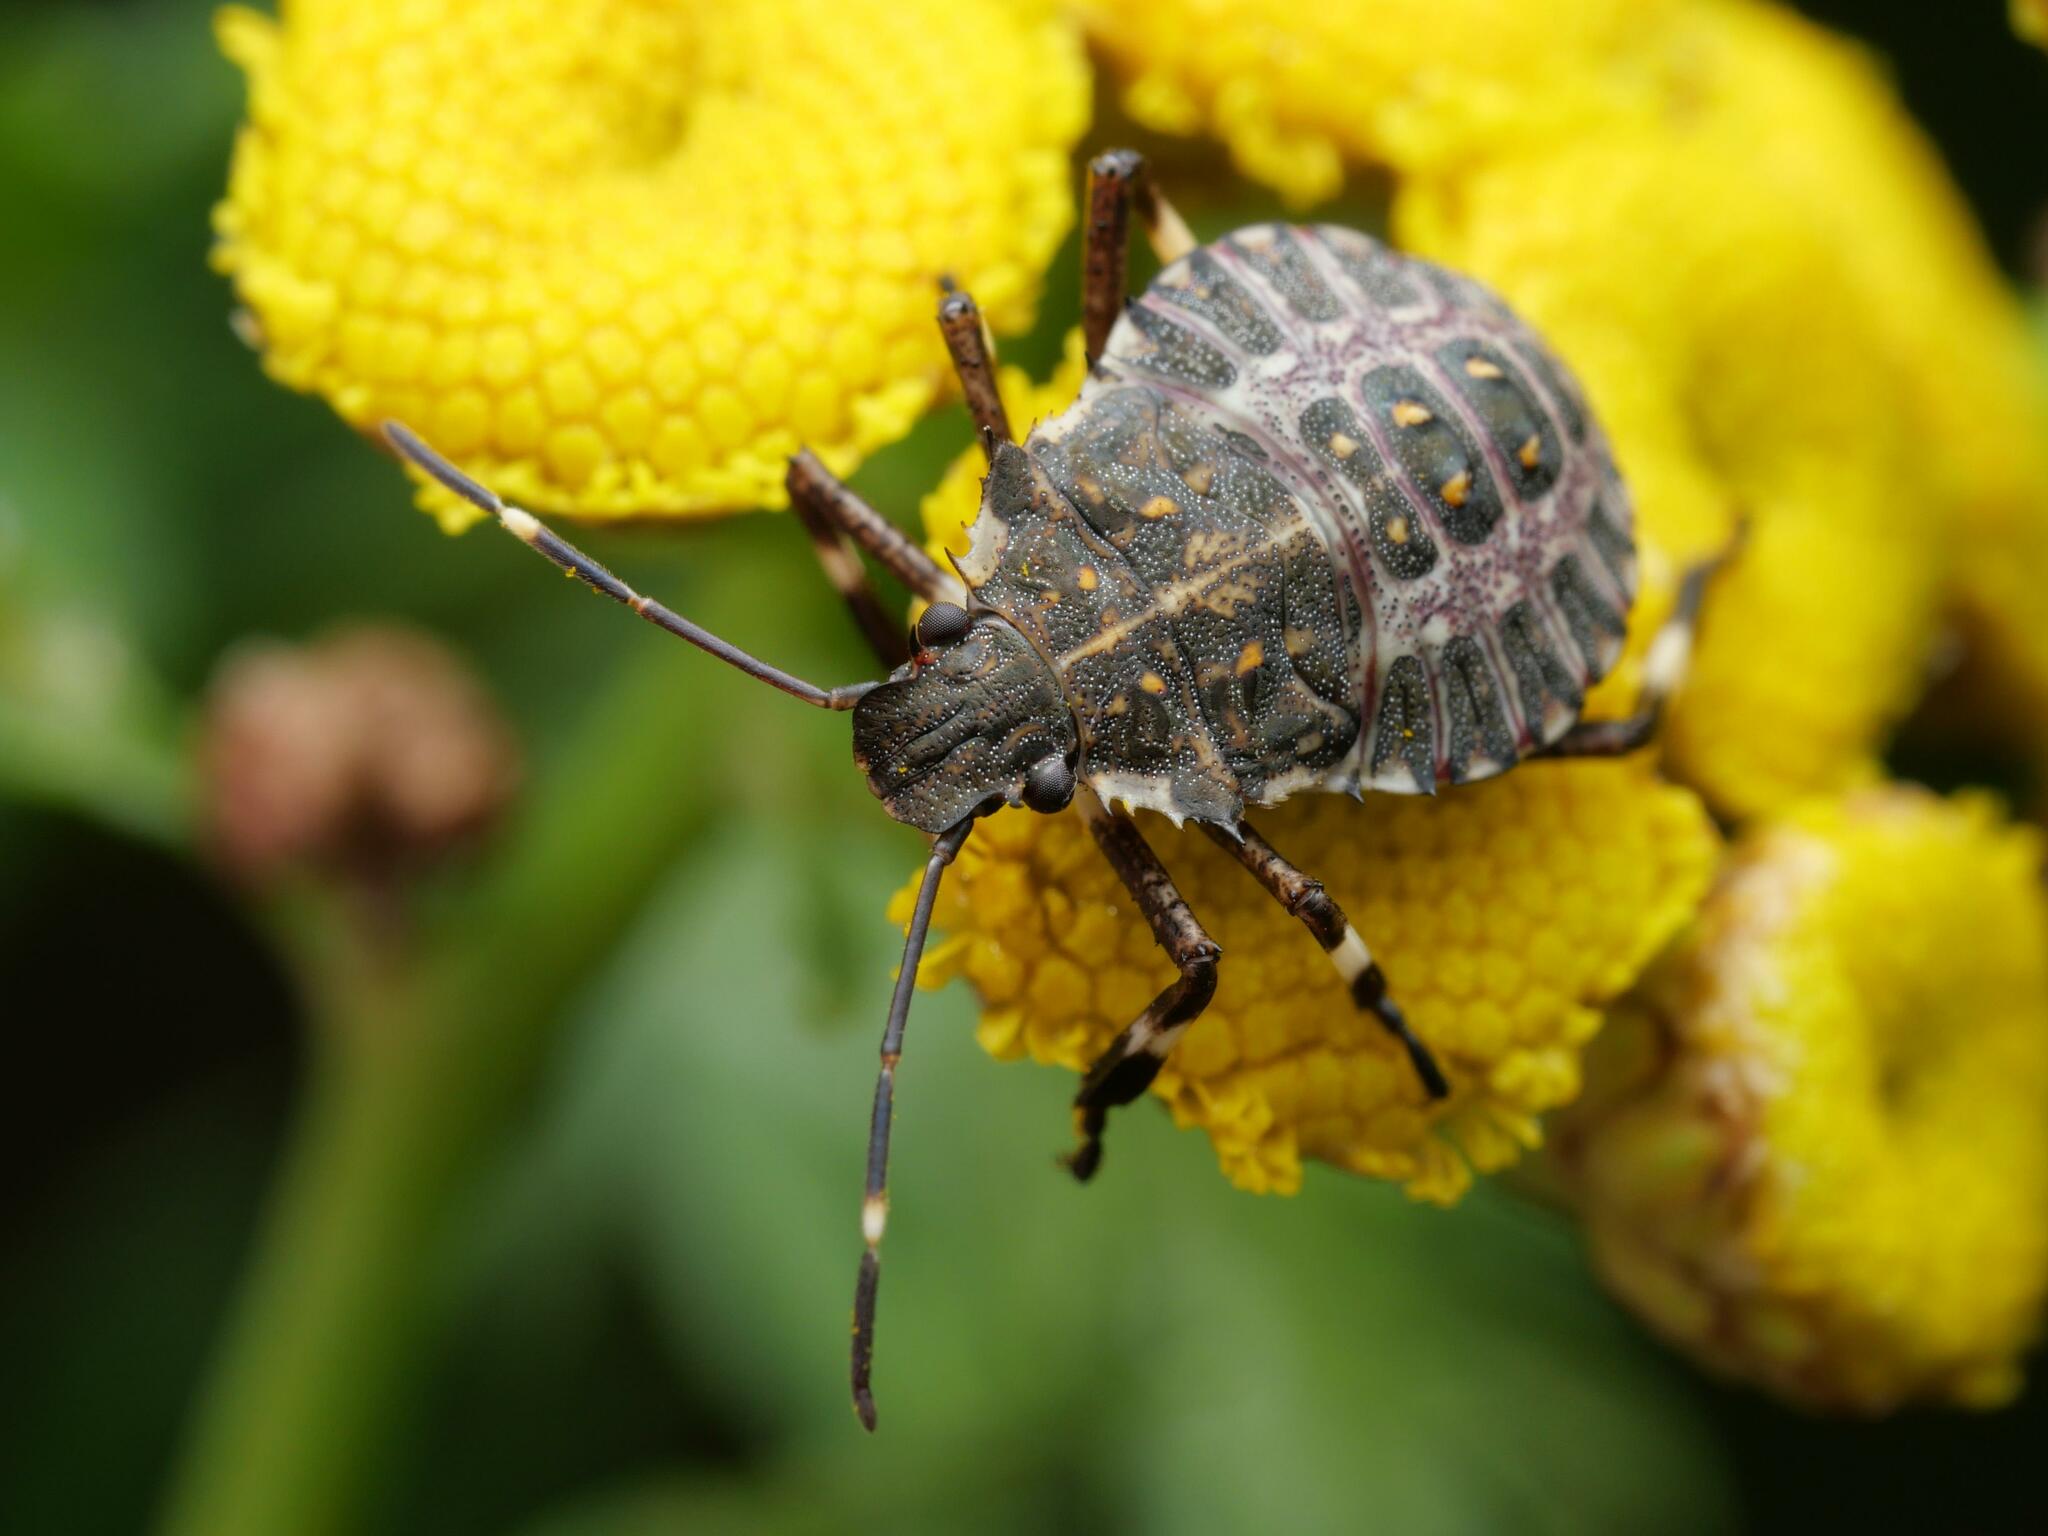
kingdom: Animalia
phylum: Arthropoda
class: Insecta
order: Hemiptera
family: Pentatomidae
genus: Halyomorpha
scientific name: Halyomorpha halys
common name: Brown marmorated stink bug
